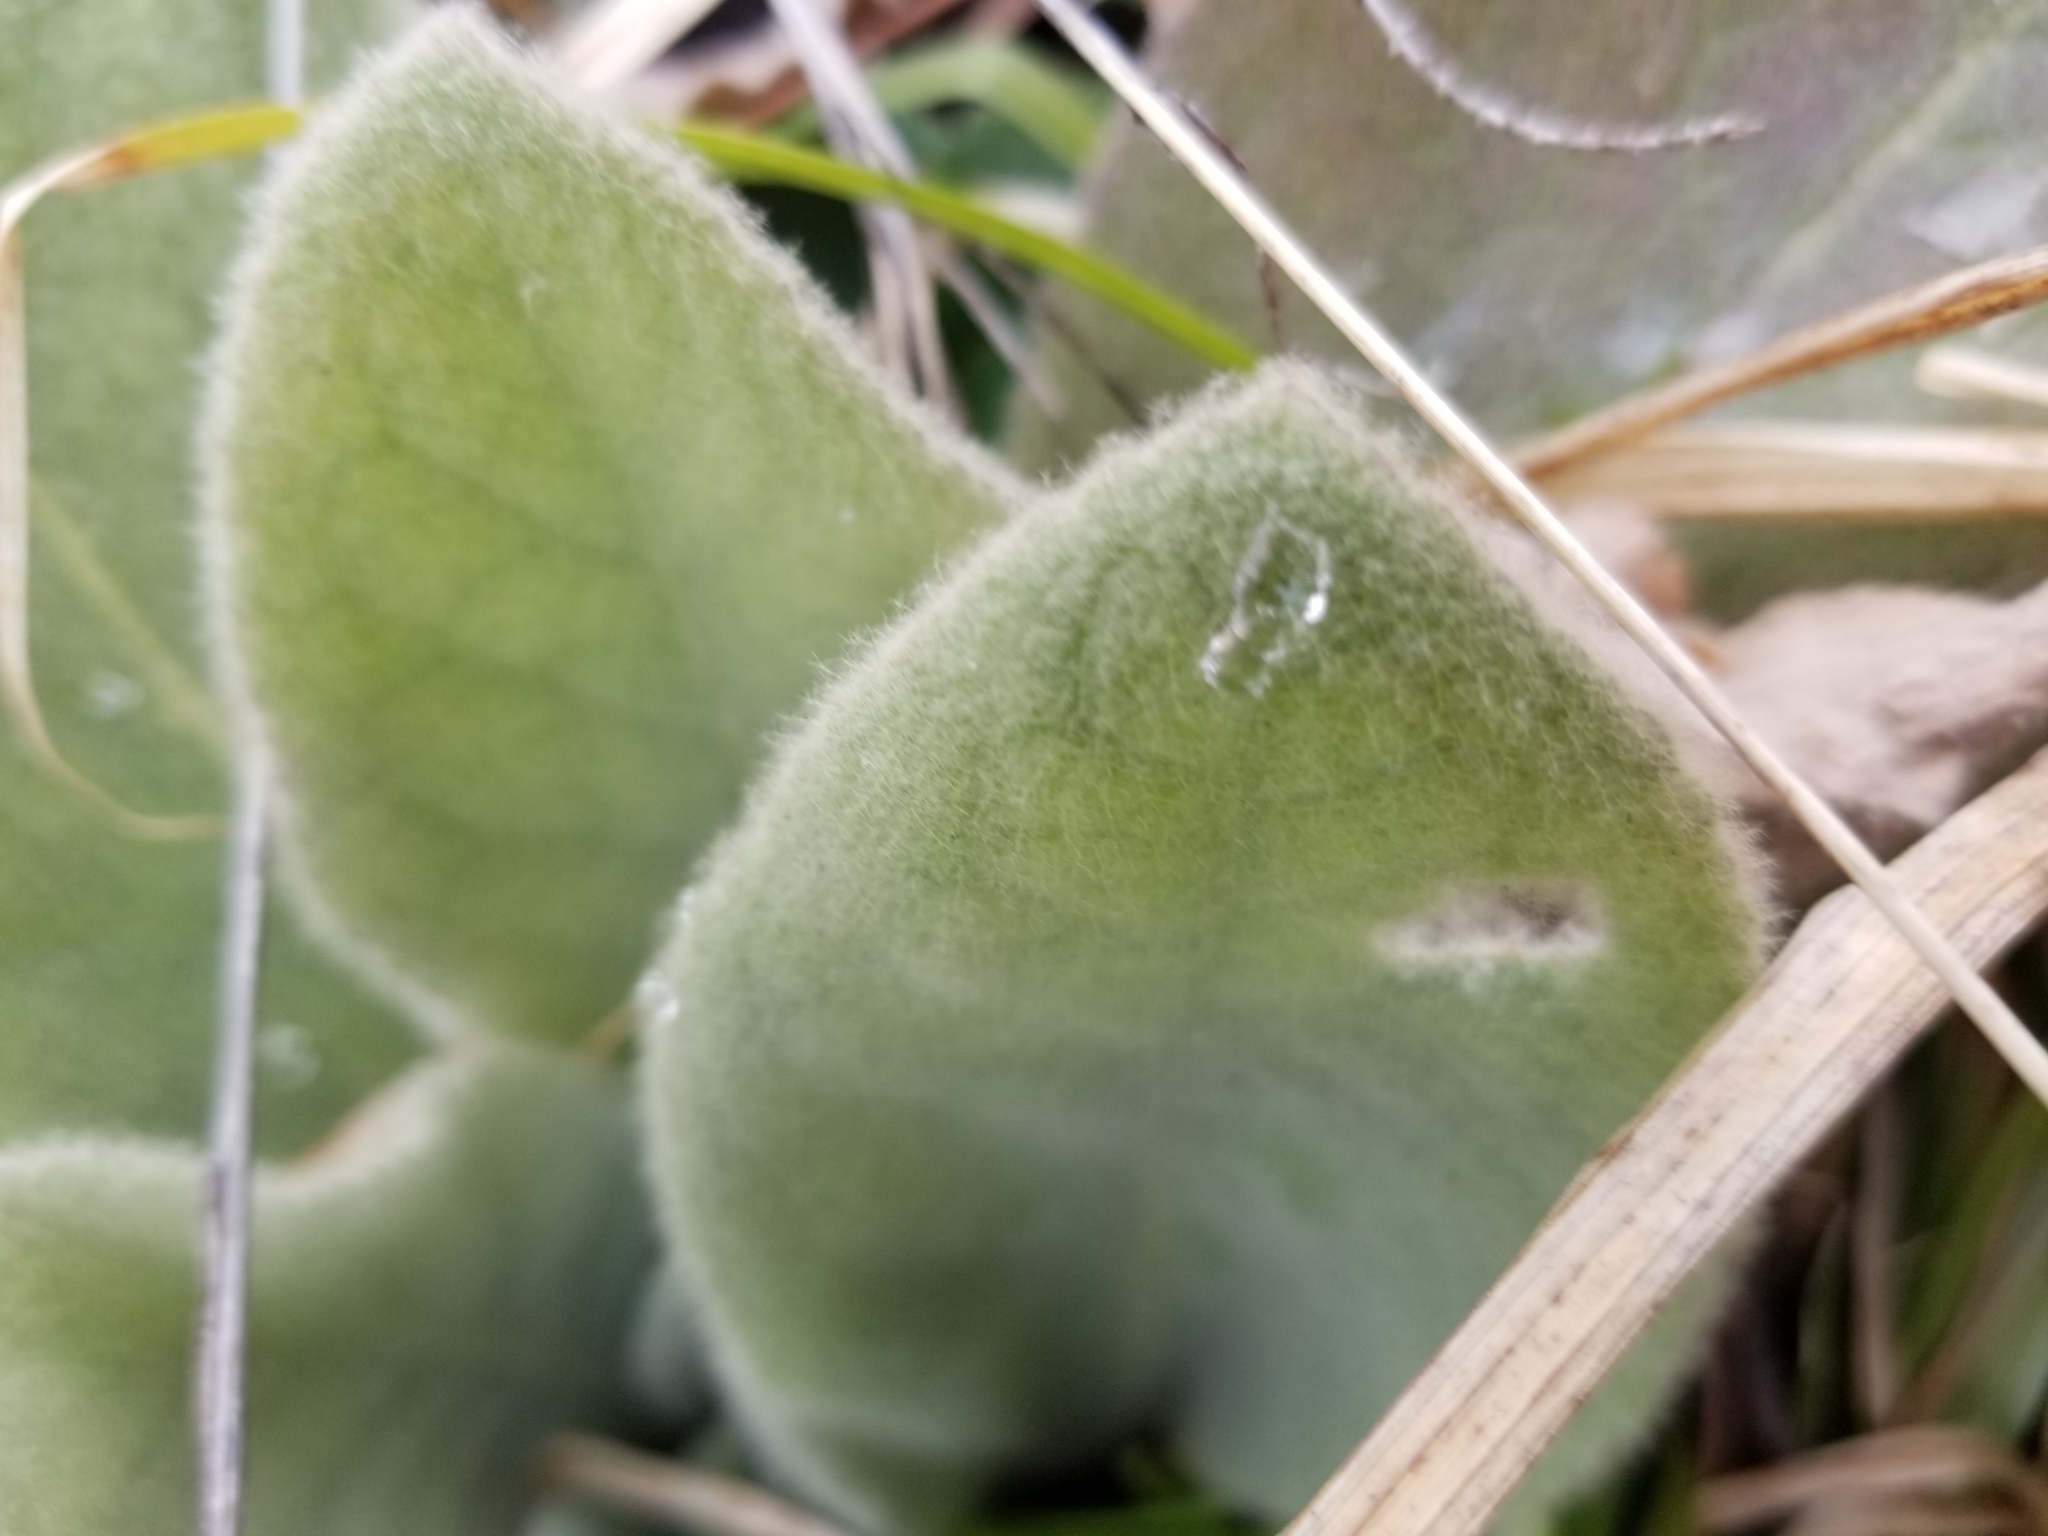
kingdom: Plantae
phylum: Tracheophyta
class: Magnoliopsida
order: Lamiales
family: Scrophulariaceae
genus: Verbascum
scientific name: Verbascum thapsus
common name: Common mullein
